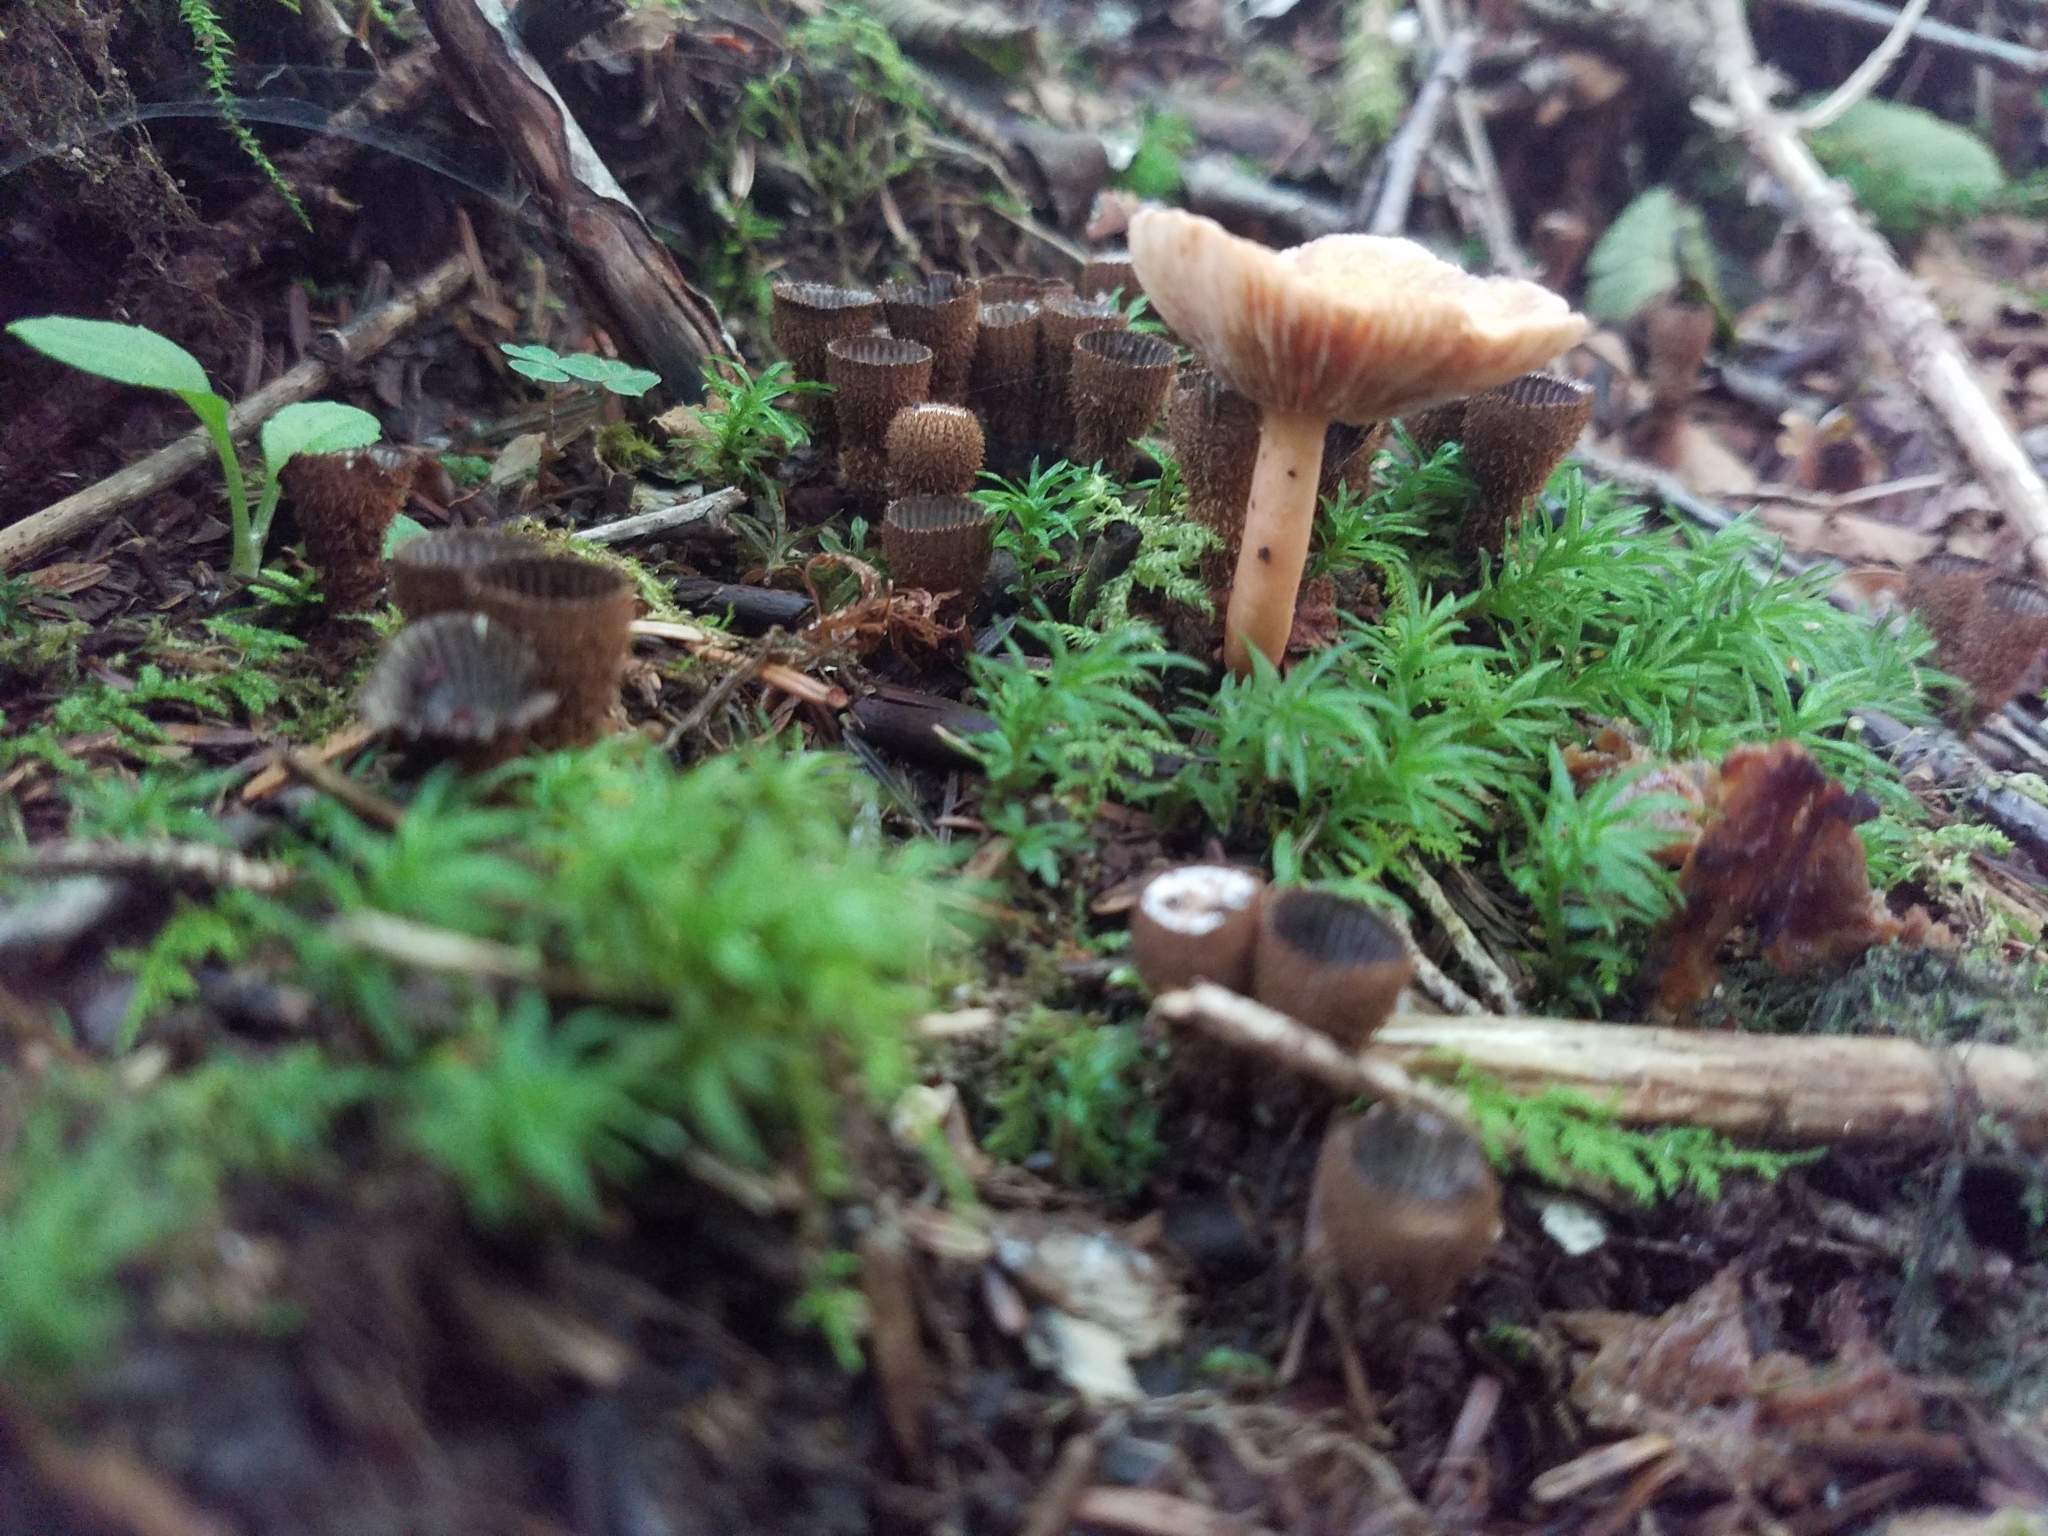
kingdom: Fungi
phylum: Basidiomycota
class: Agaricomycetes
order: Agaricales
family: Agaricaceae
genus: Cyathus
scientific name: Cyathus striatus
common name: Fluted bird's nest
